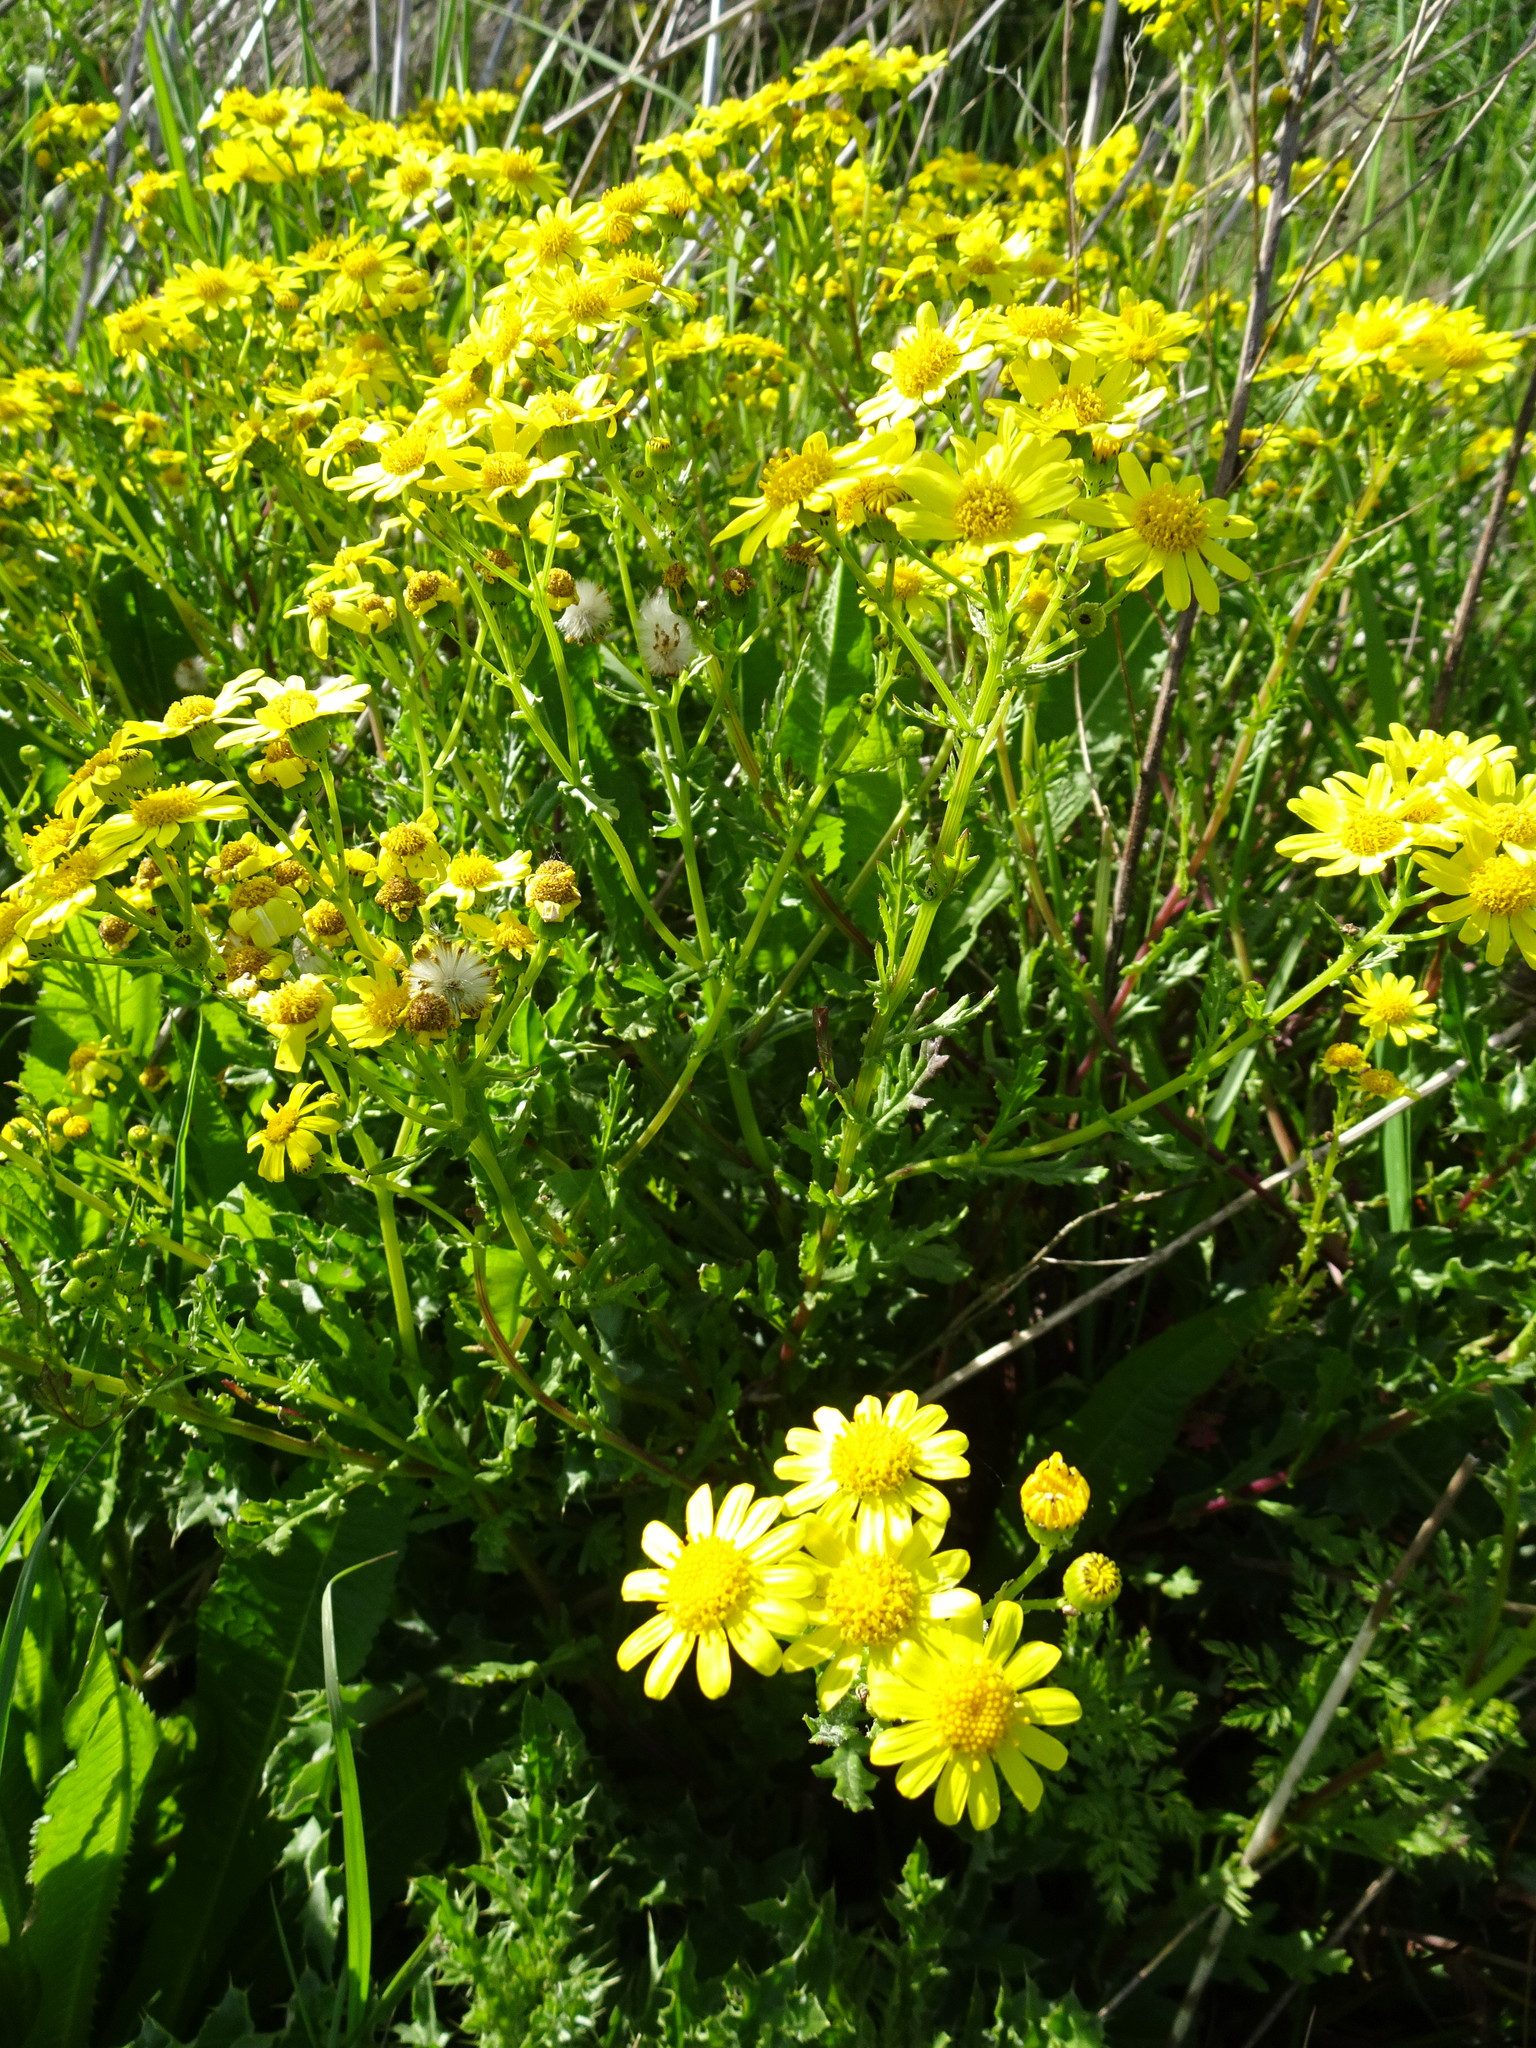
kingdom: Plantae
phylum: Tracheophyta
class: Magnoliopsida
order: Asterales
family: Asteraceae
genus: Senecio
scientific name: Senecio squalidus
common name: Oxford ragwort
